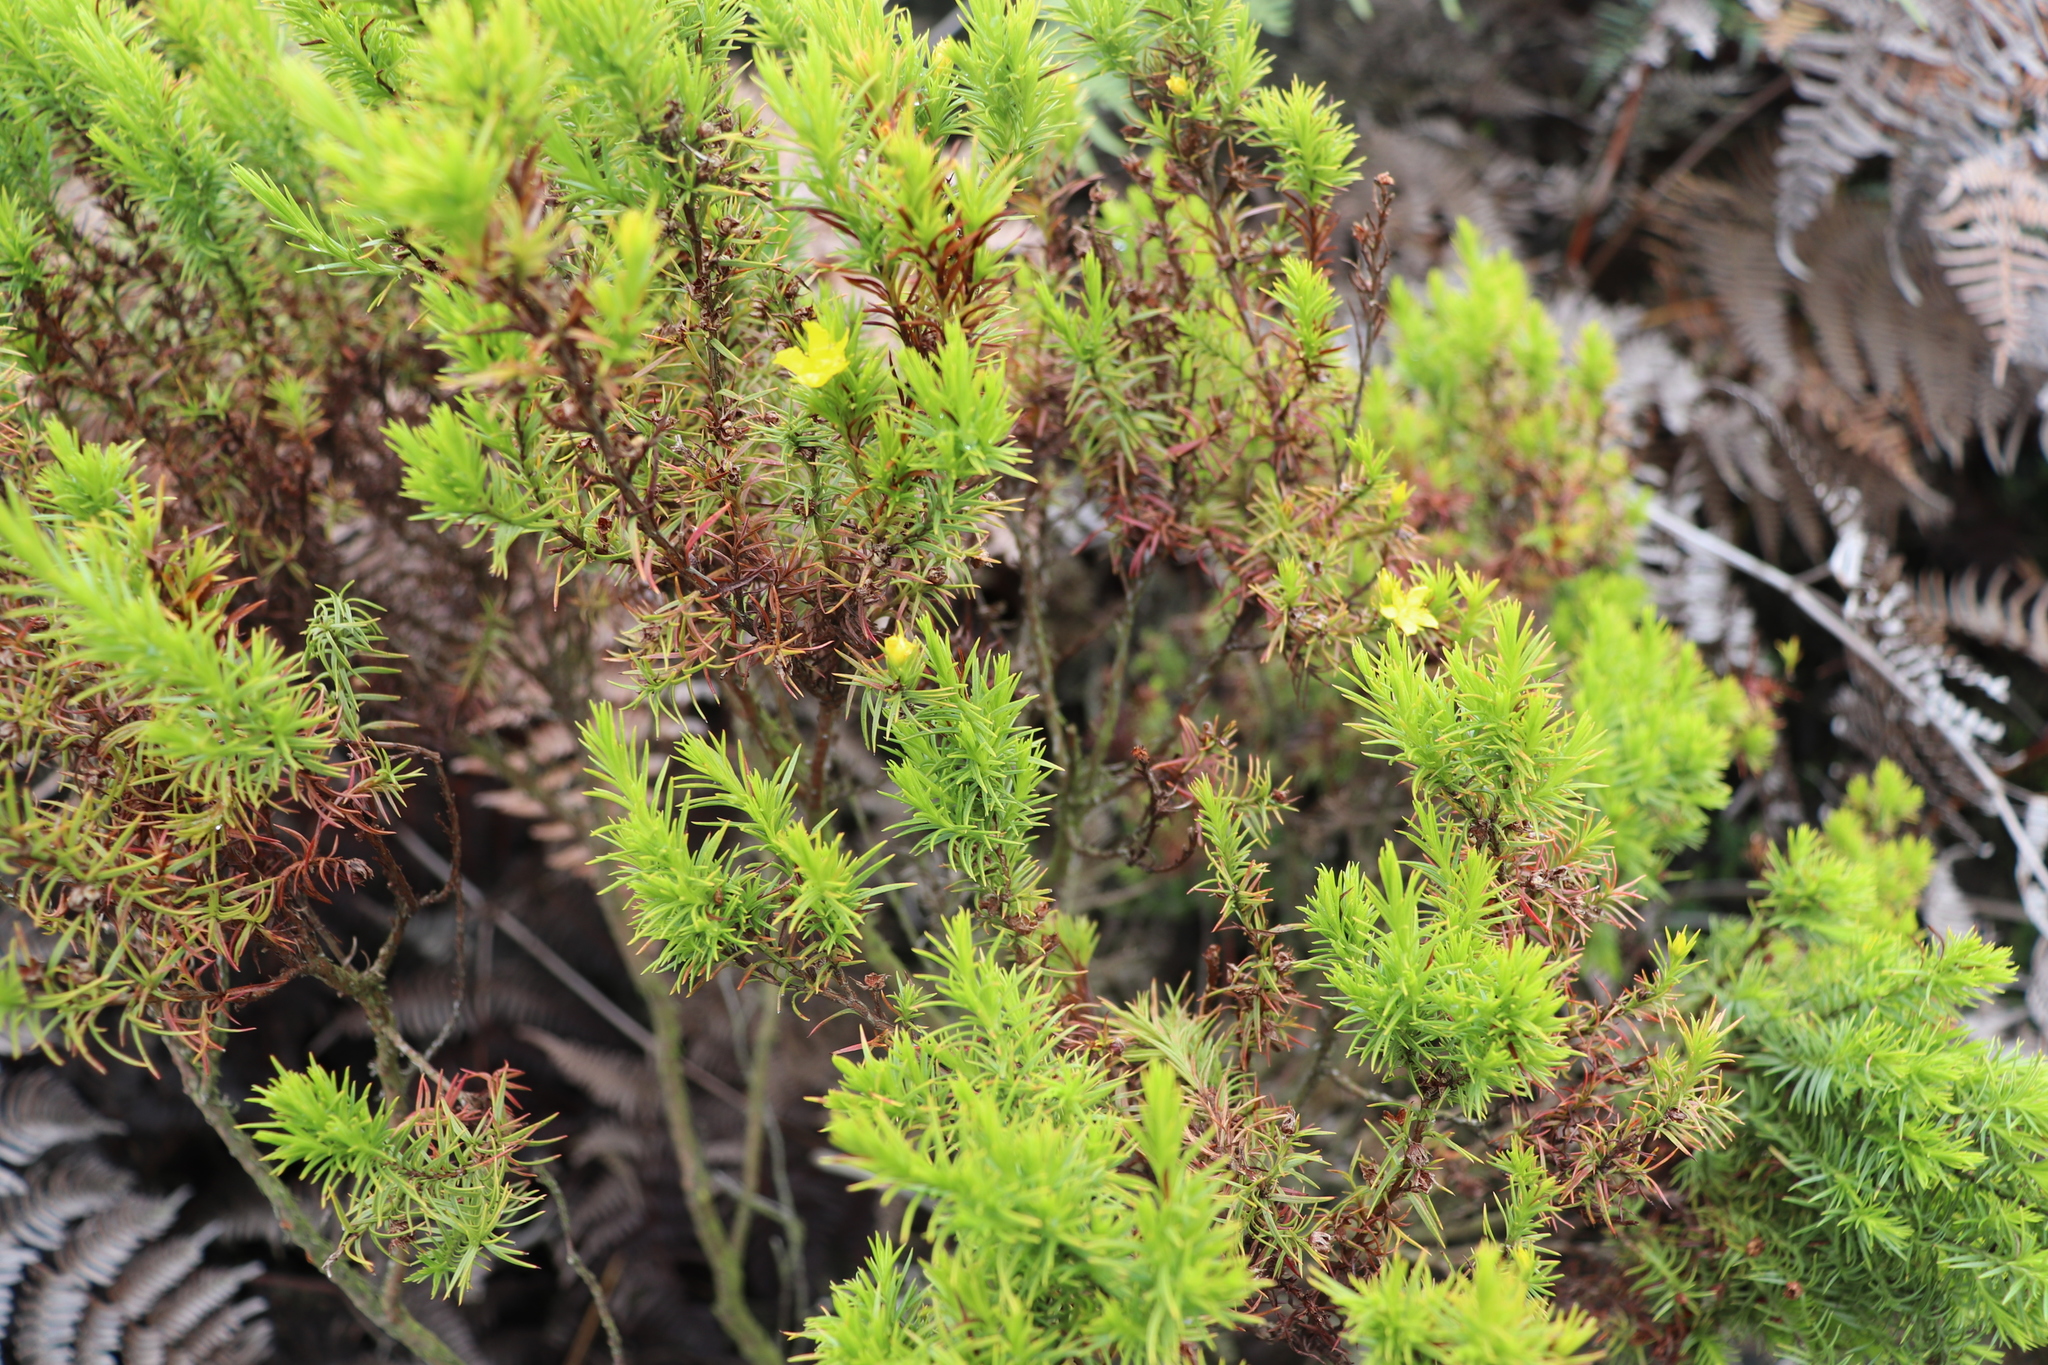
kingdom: Plantae
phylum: Tracheophyta
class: Magnoliopsida
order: Malpighiales
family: Hypericaceae
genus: Hypericum
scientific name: Hypericum juniperinum
